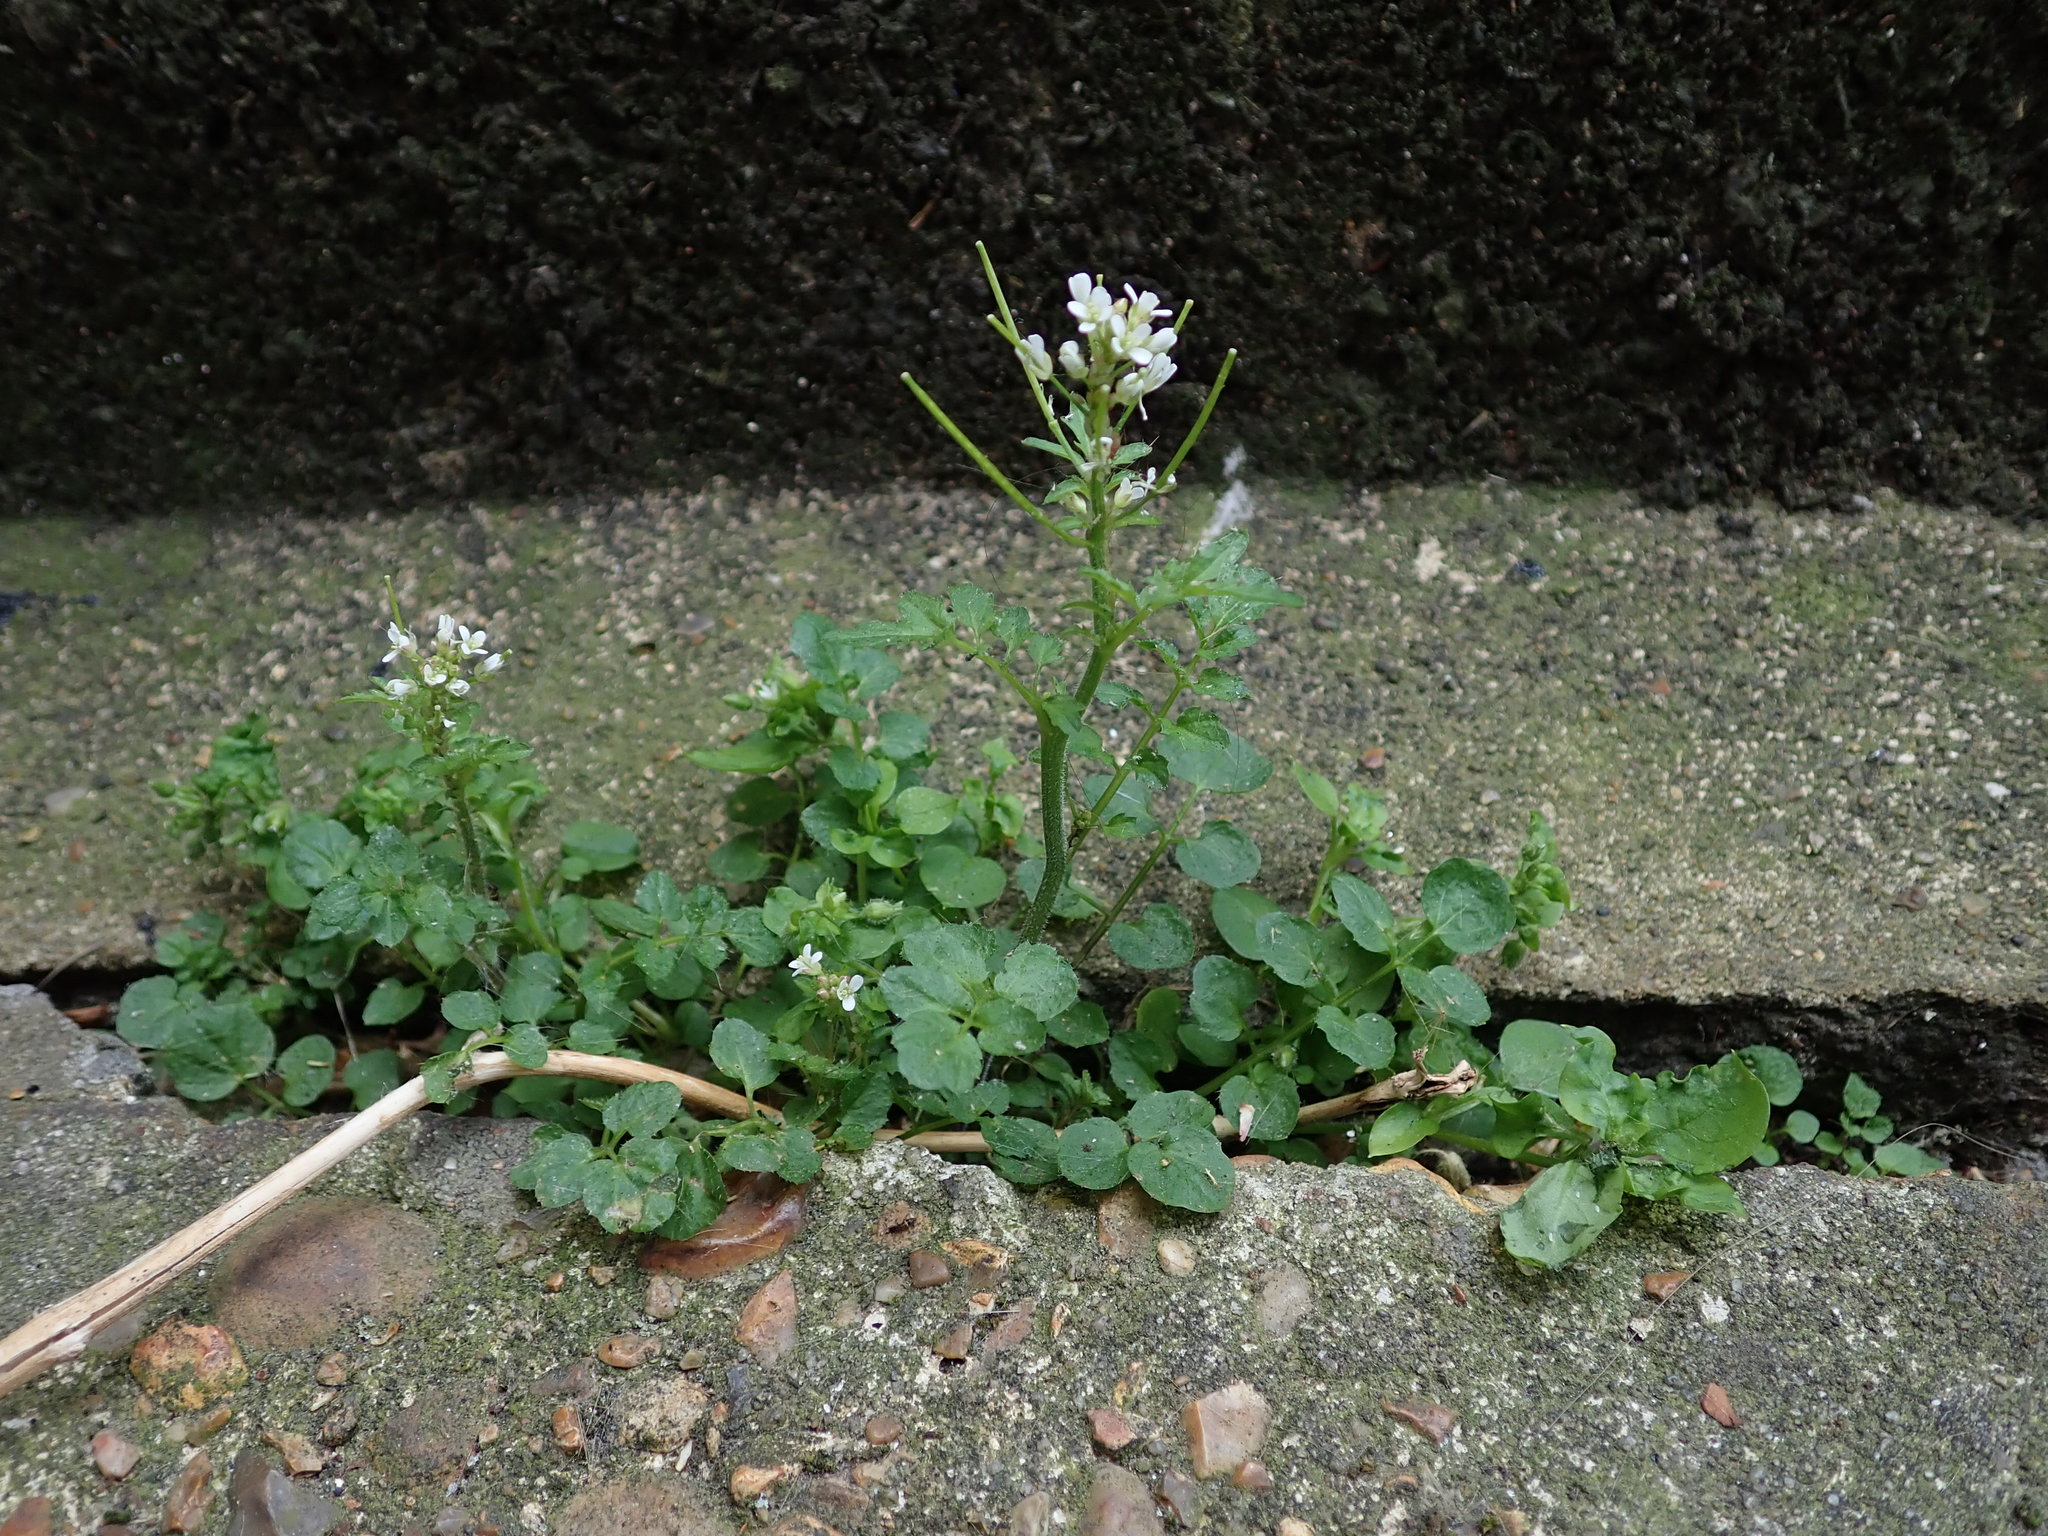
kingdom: Plantae
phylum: Tracheophyta
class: Magnoliopsida
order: Brassicales
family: Brassicaceae
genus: Cardamine
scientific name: Cardamine flexuosa
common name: Woodland bittercress
